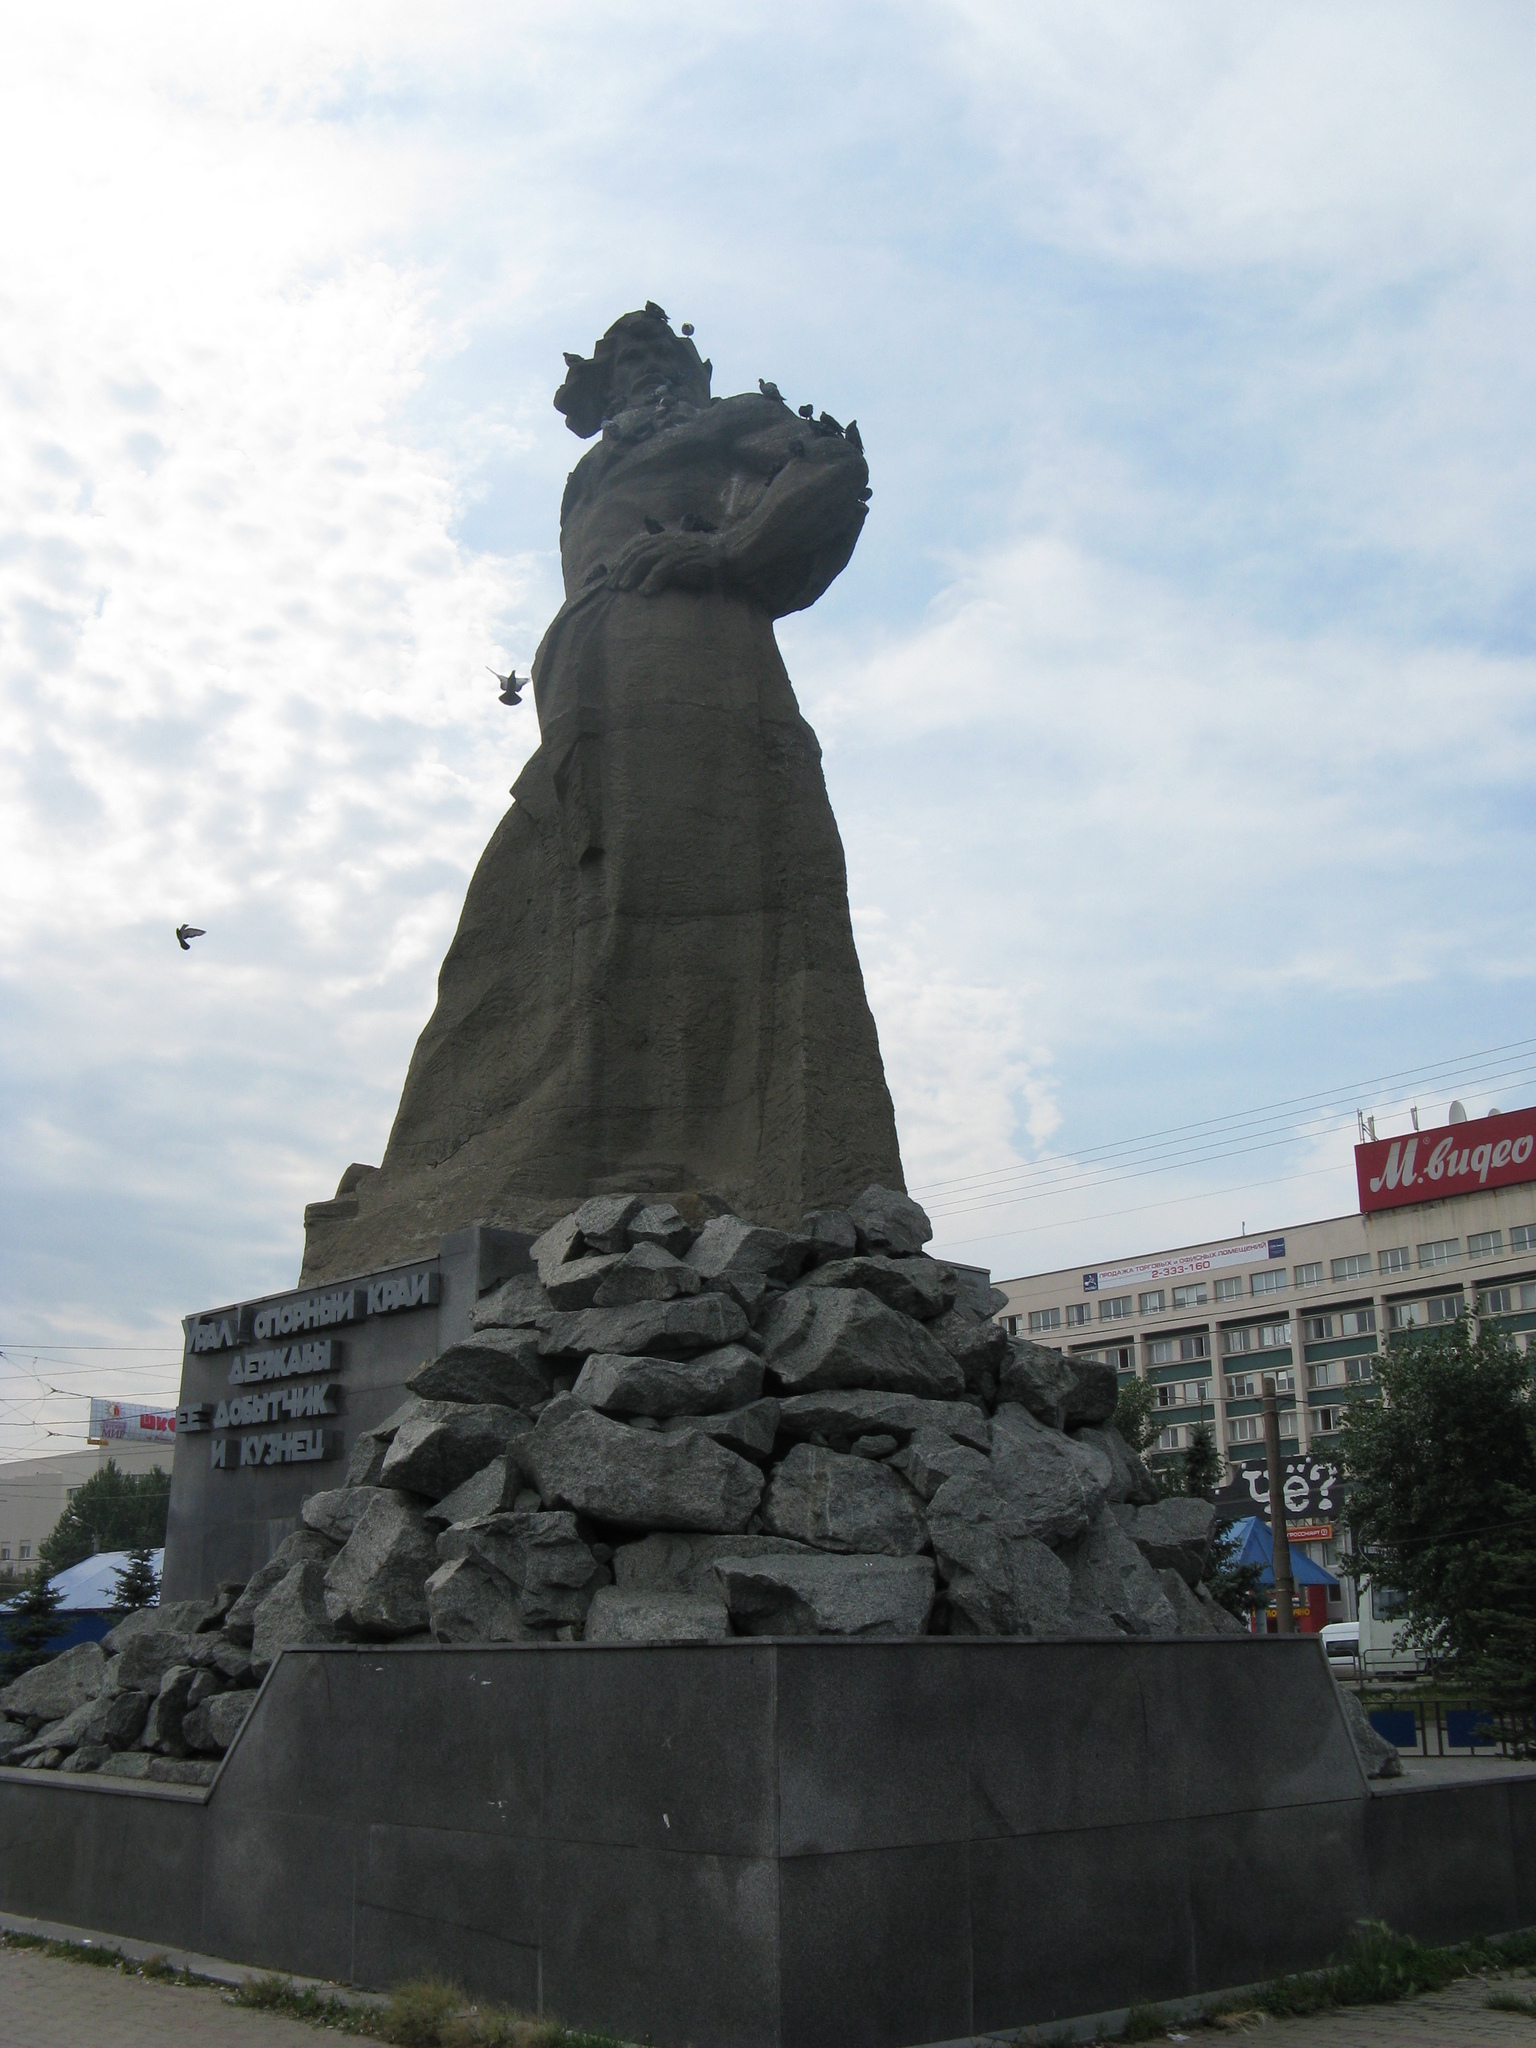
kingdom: Animalia
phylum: Chordata
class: Aves
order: Columbiformes
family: Columbidae
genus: Columba
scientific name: Columba livia
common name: Rock pigeon
